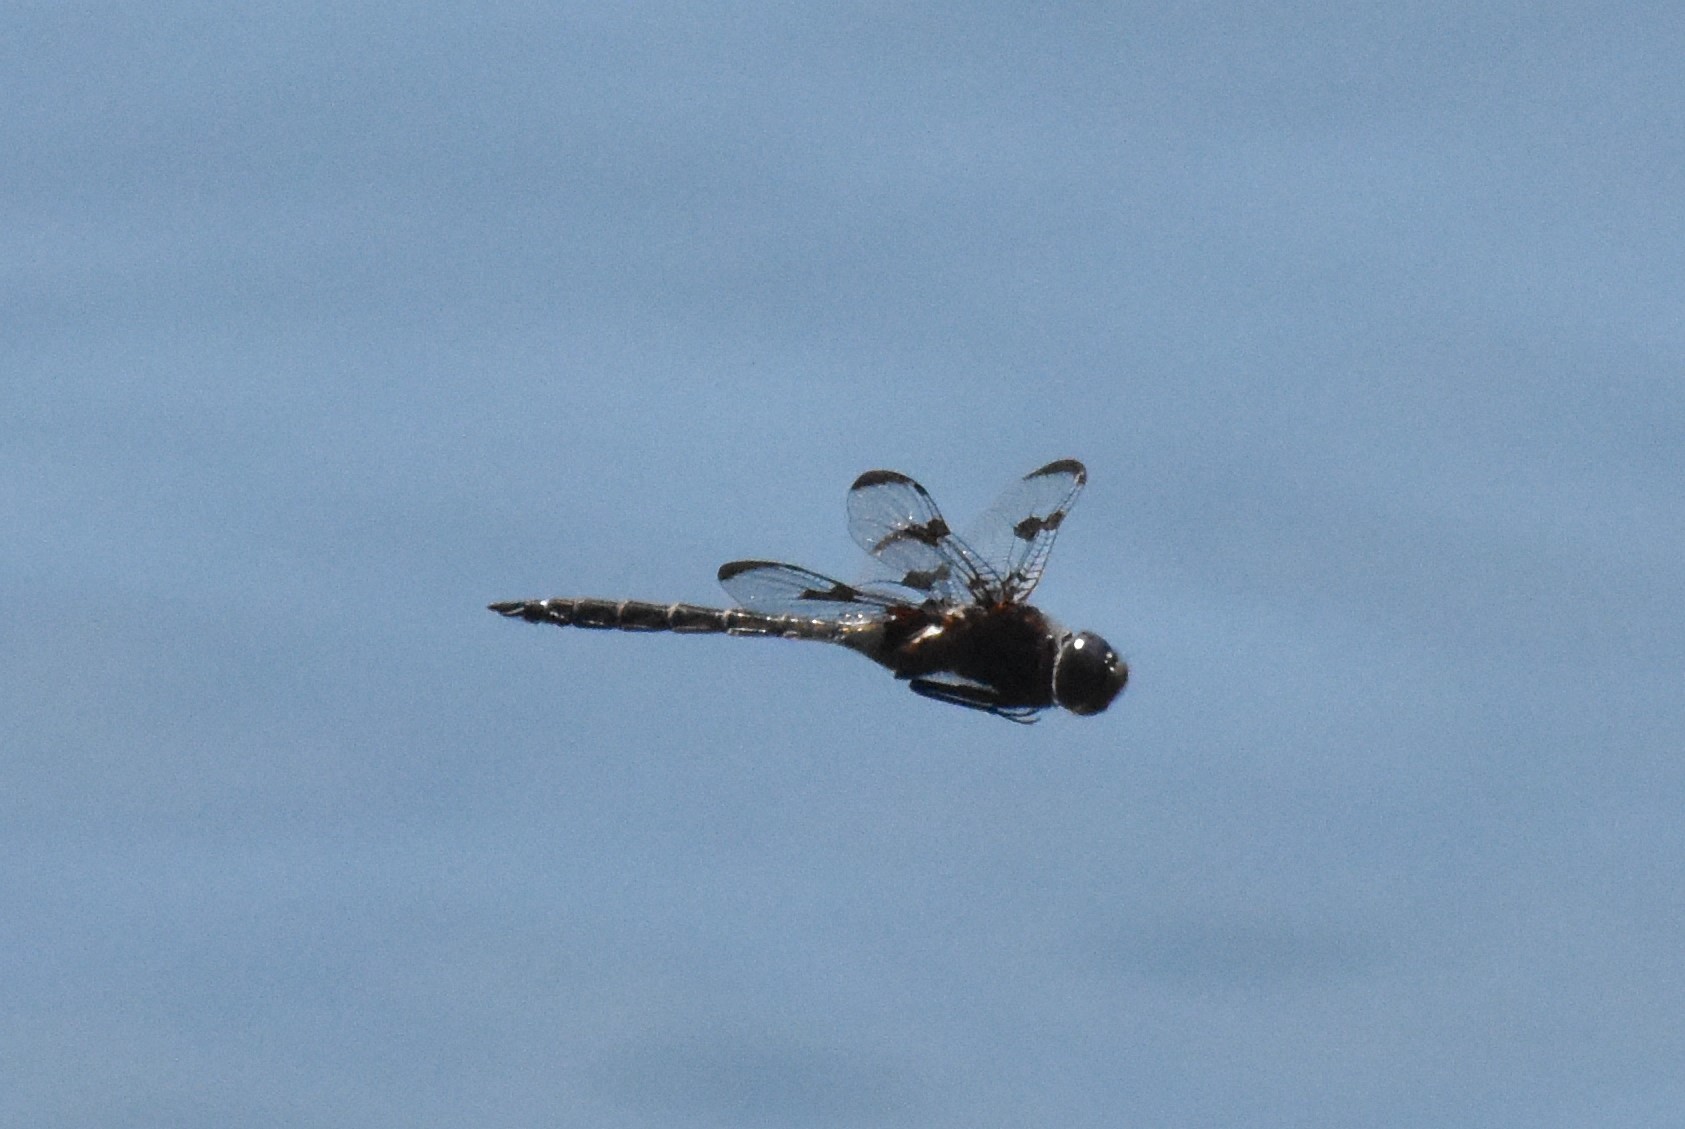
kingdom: Animalia
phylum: Arthropoda
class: Insecta
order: Odonata
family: Corduliidae
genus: Epitheca
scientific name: Epitheca princeps
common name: Prince baskettail
